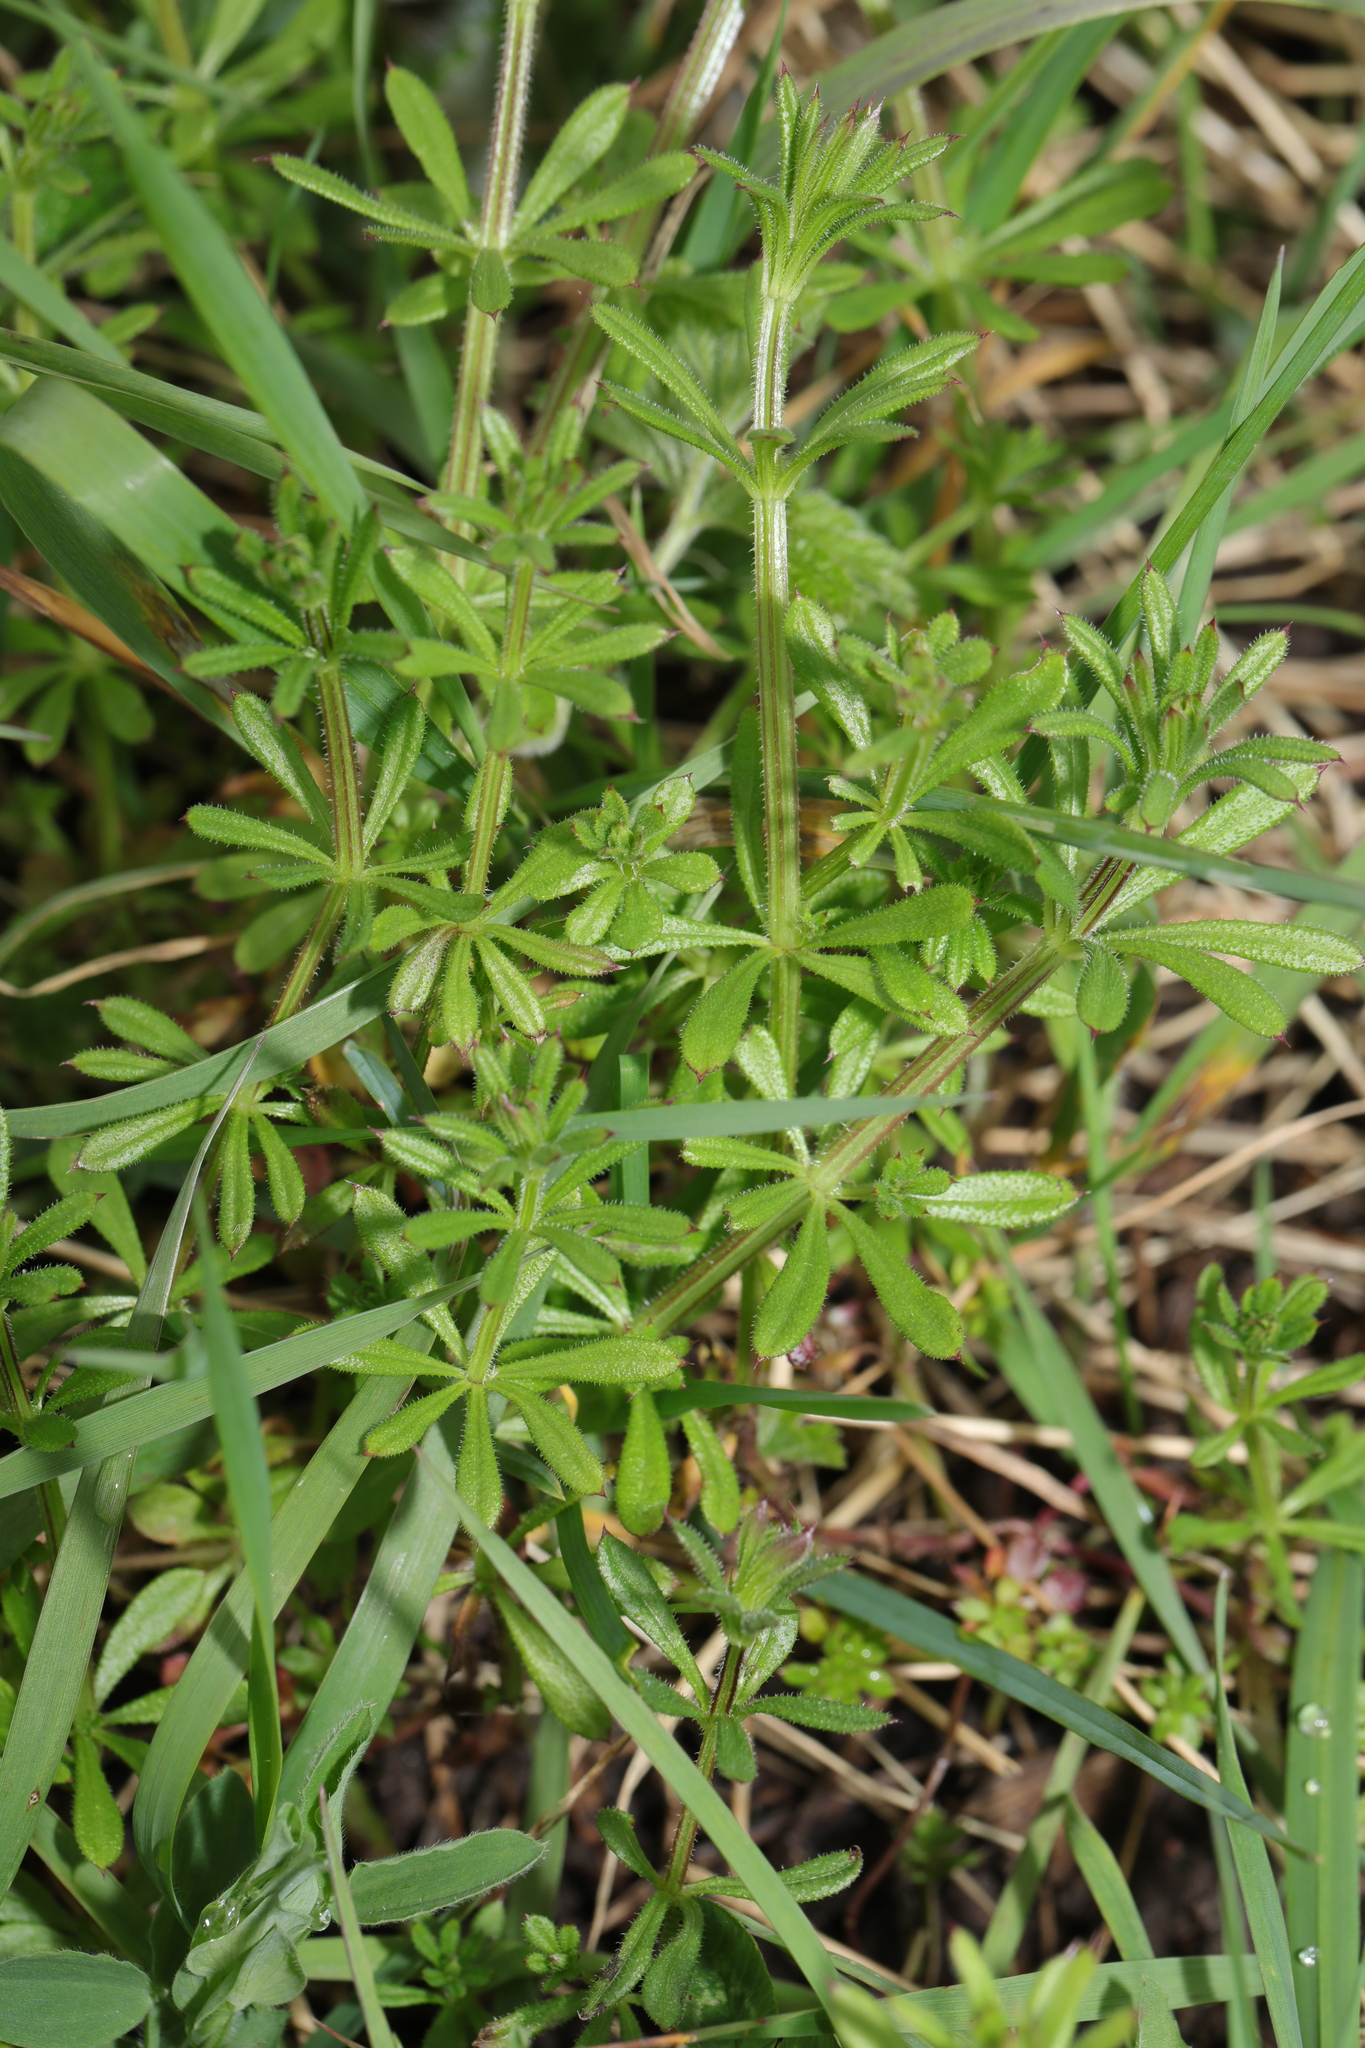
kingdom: Plantae
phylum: Tracheophyta
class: Magnoliopsida
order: Gentianales
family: Rubiaceae
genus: Galium
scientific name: Galium aparine
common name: Cleavers
